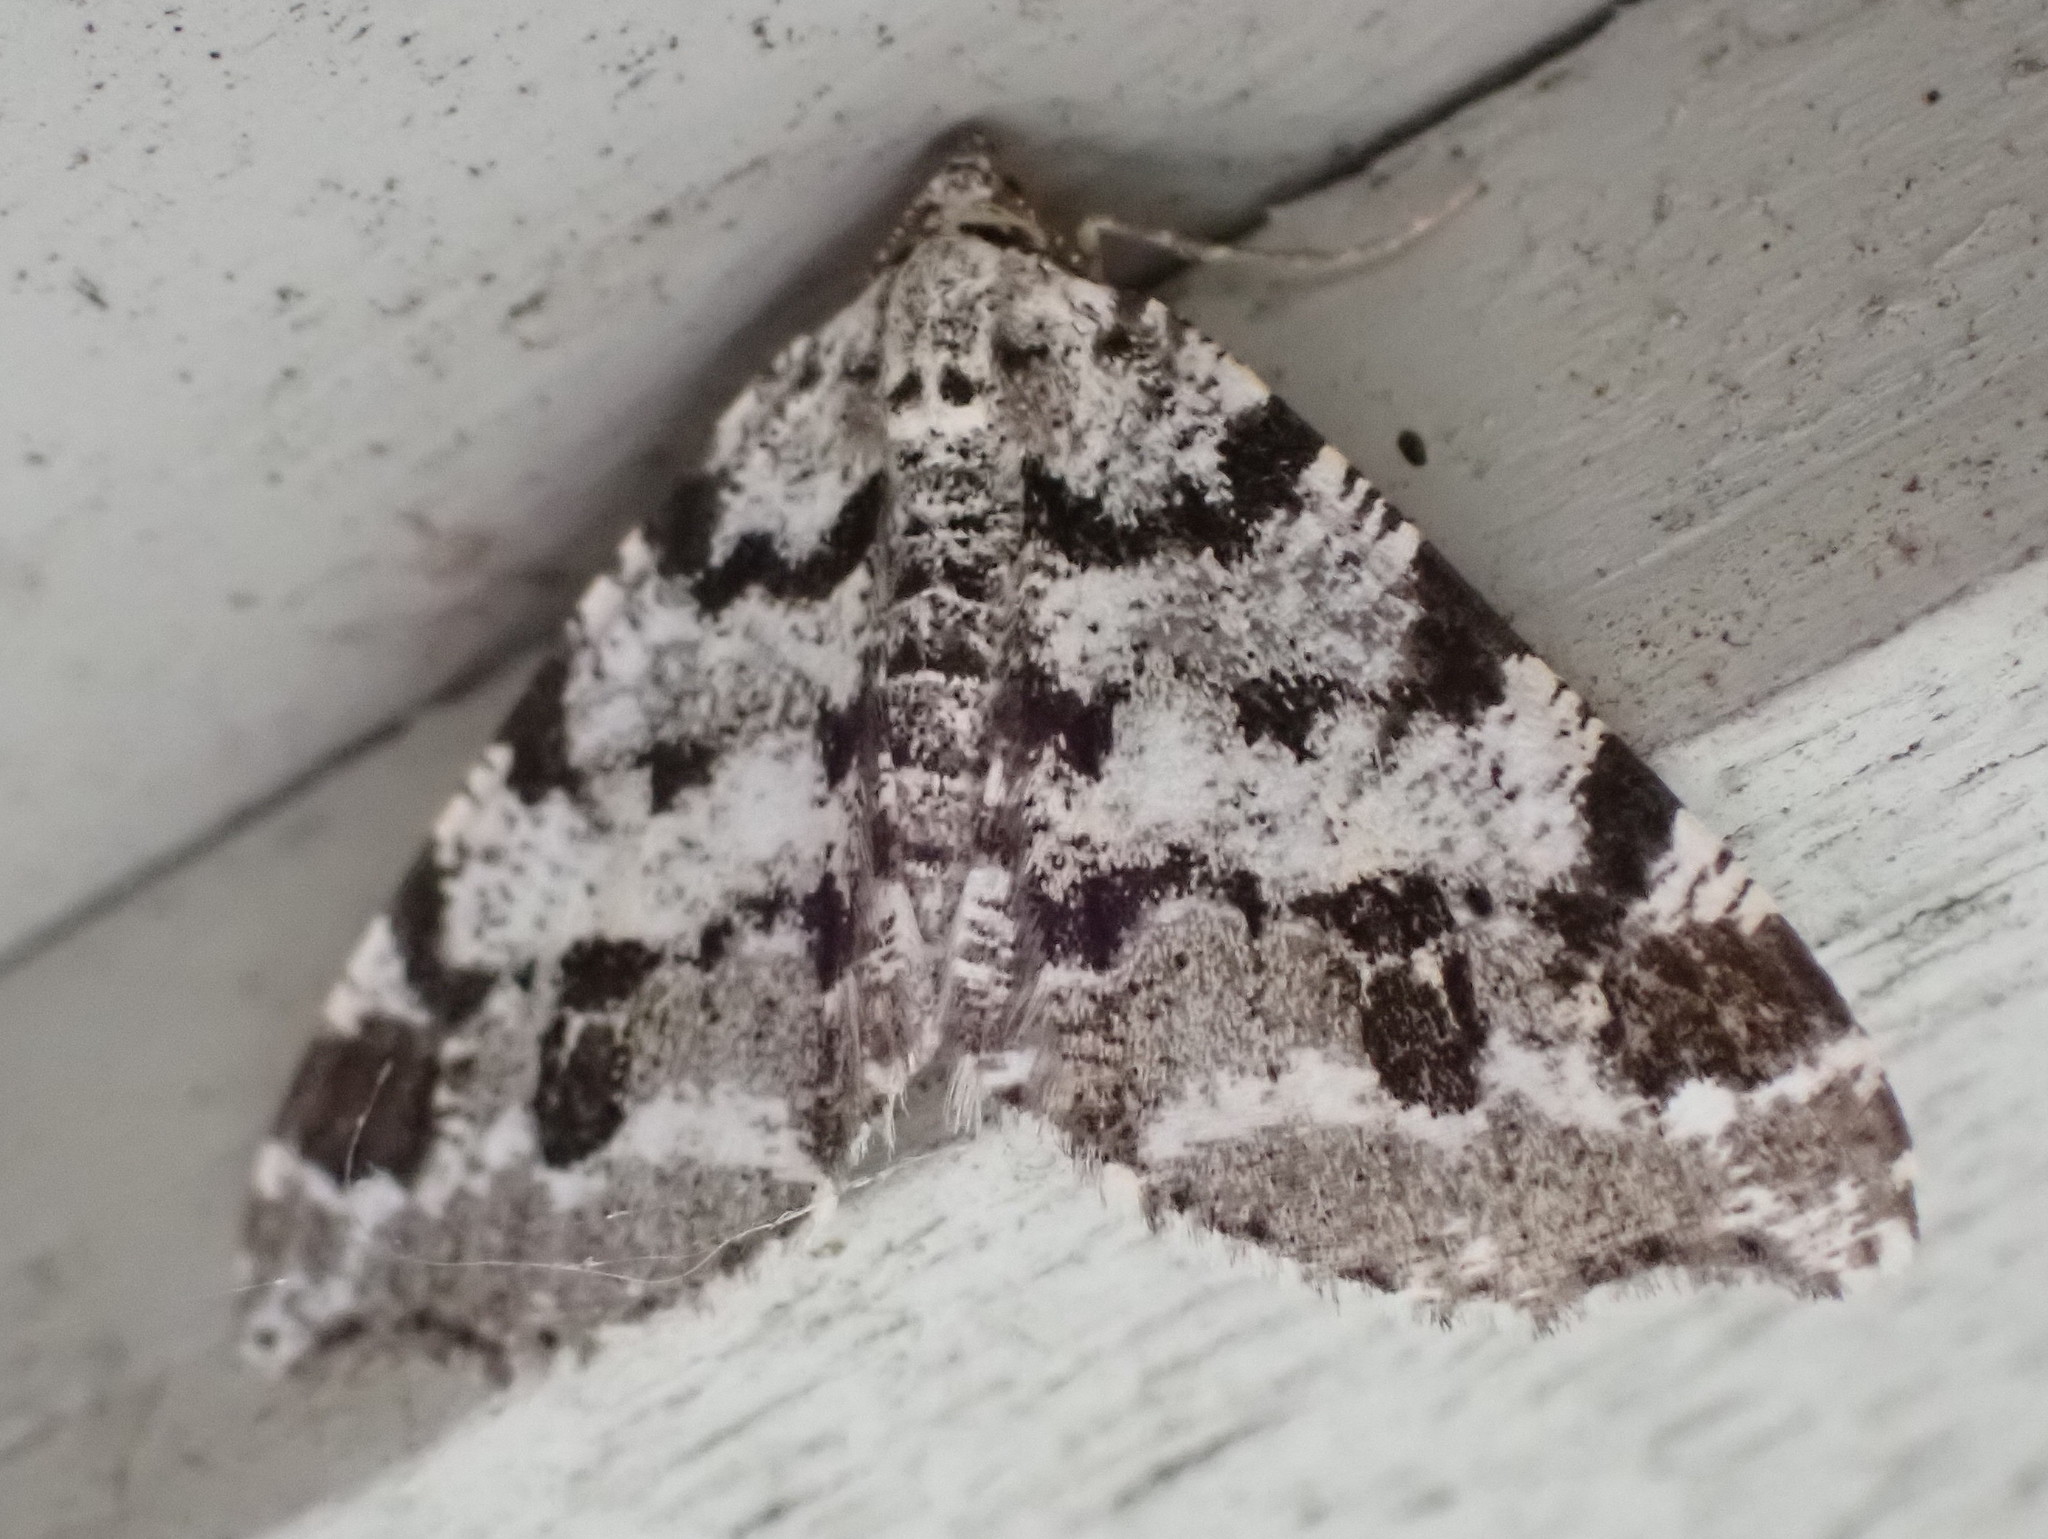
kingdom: Animalia
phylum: Arthropoda
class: Insecta
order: Lepidoptera
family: Geometridae
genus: Macaria
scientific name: Macaria oweni
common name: Owen's angle
